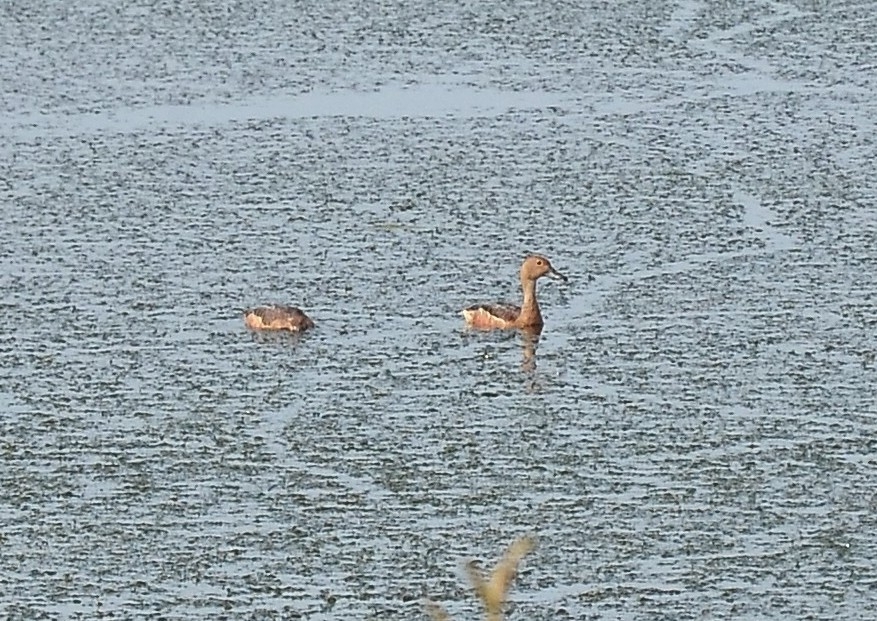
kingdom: Animalia
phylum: Chordata
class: Aves
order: Anseriformes
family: Anatidae
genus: Dendrocygna
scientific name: Dendrocygna javanica
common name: Lesser whistling-duck
